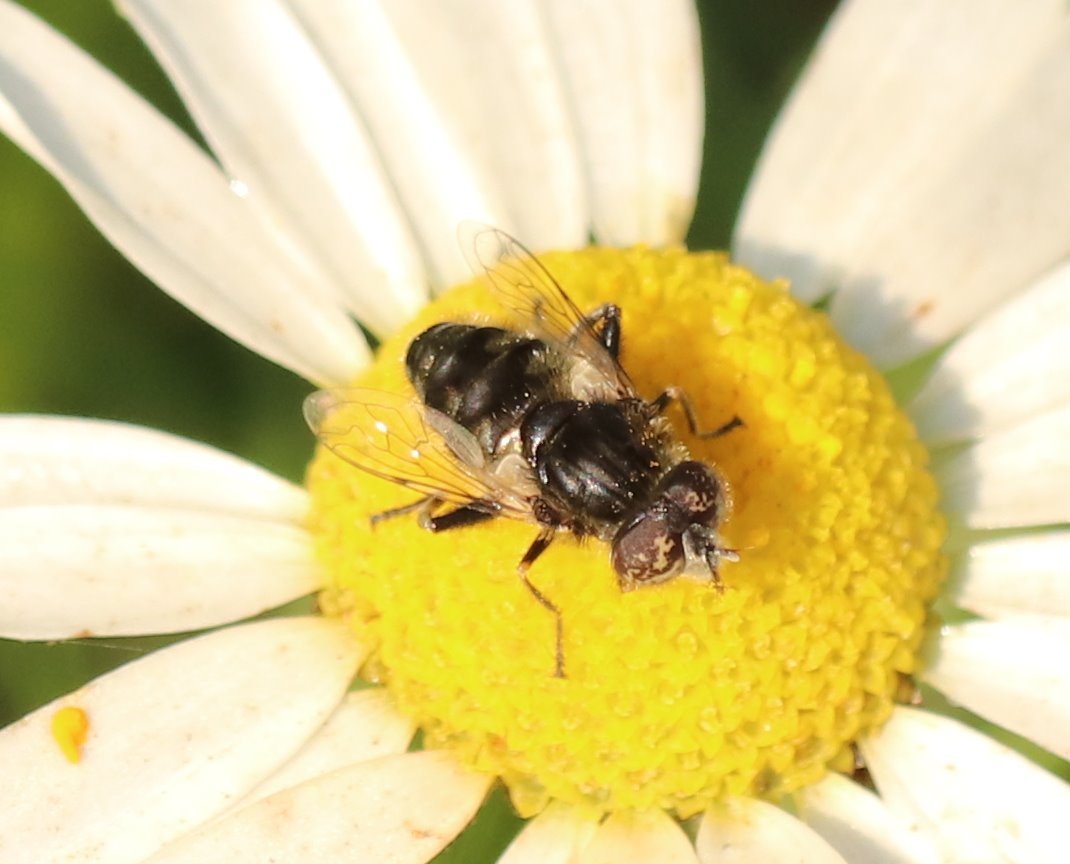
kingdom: Animalia
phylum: Arthropoda
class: Insecta
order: Diptera
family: Syrphidae
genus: Eristalinus
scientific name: Eristalinus sepulchralis
